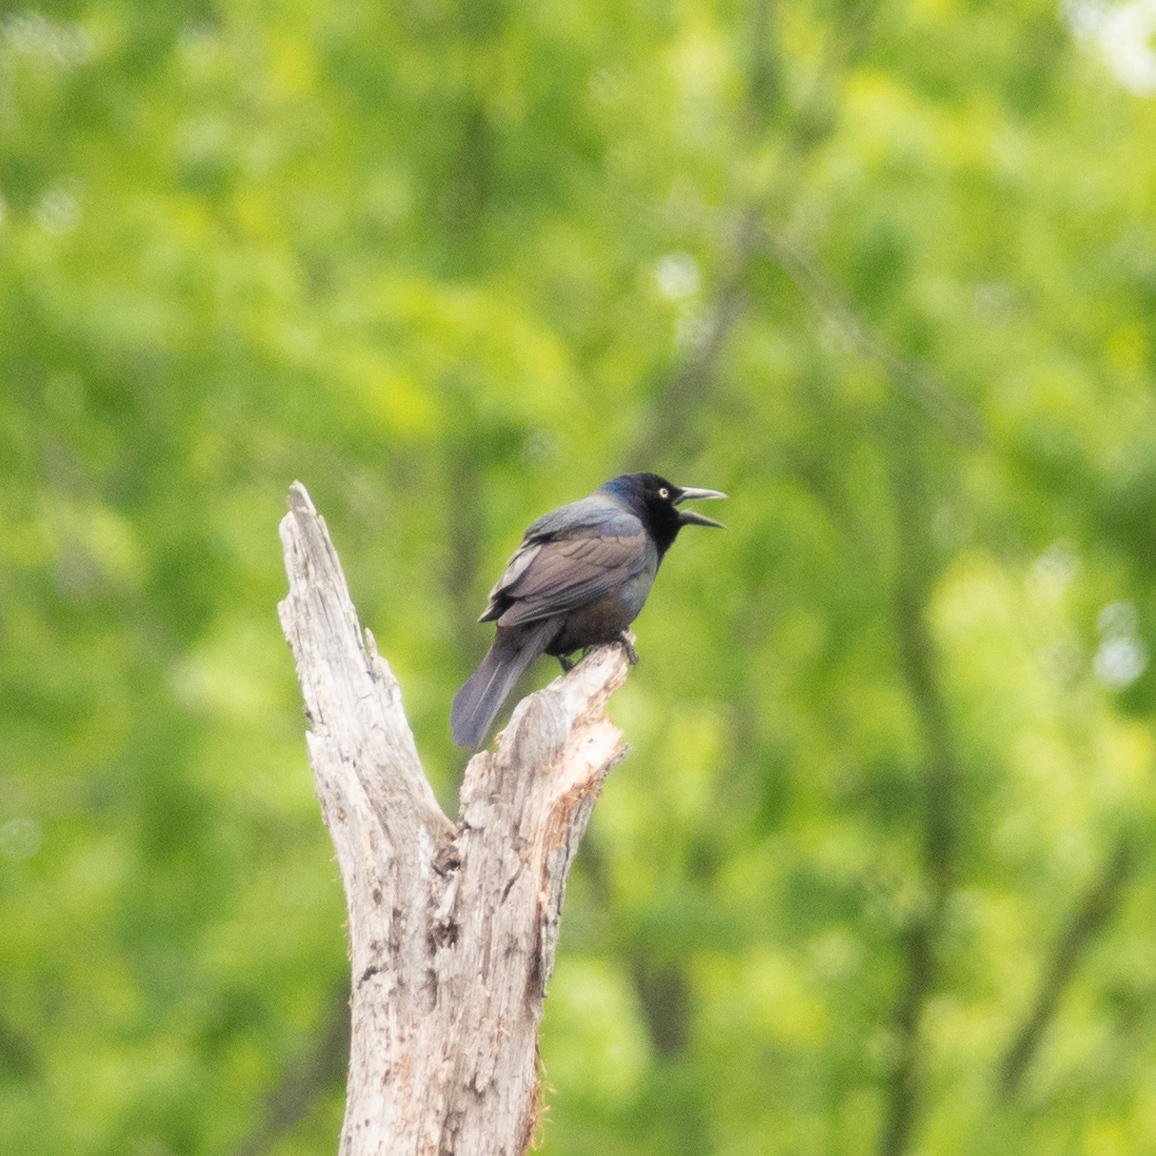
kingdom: Animalia
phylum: Chordata
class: Aves
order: Passeriformes
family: Icteridae
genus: Quiscalus
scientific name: Quiscalus quiscula
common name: Common grackle
